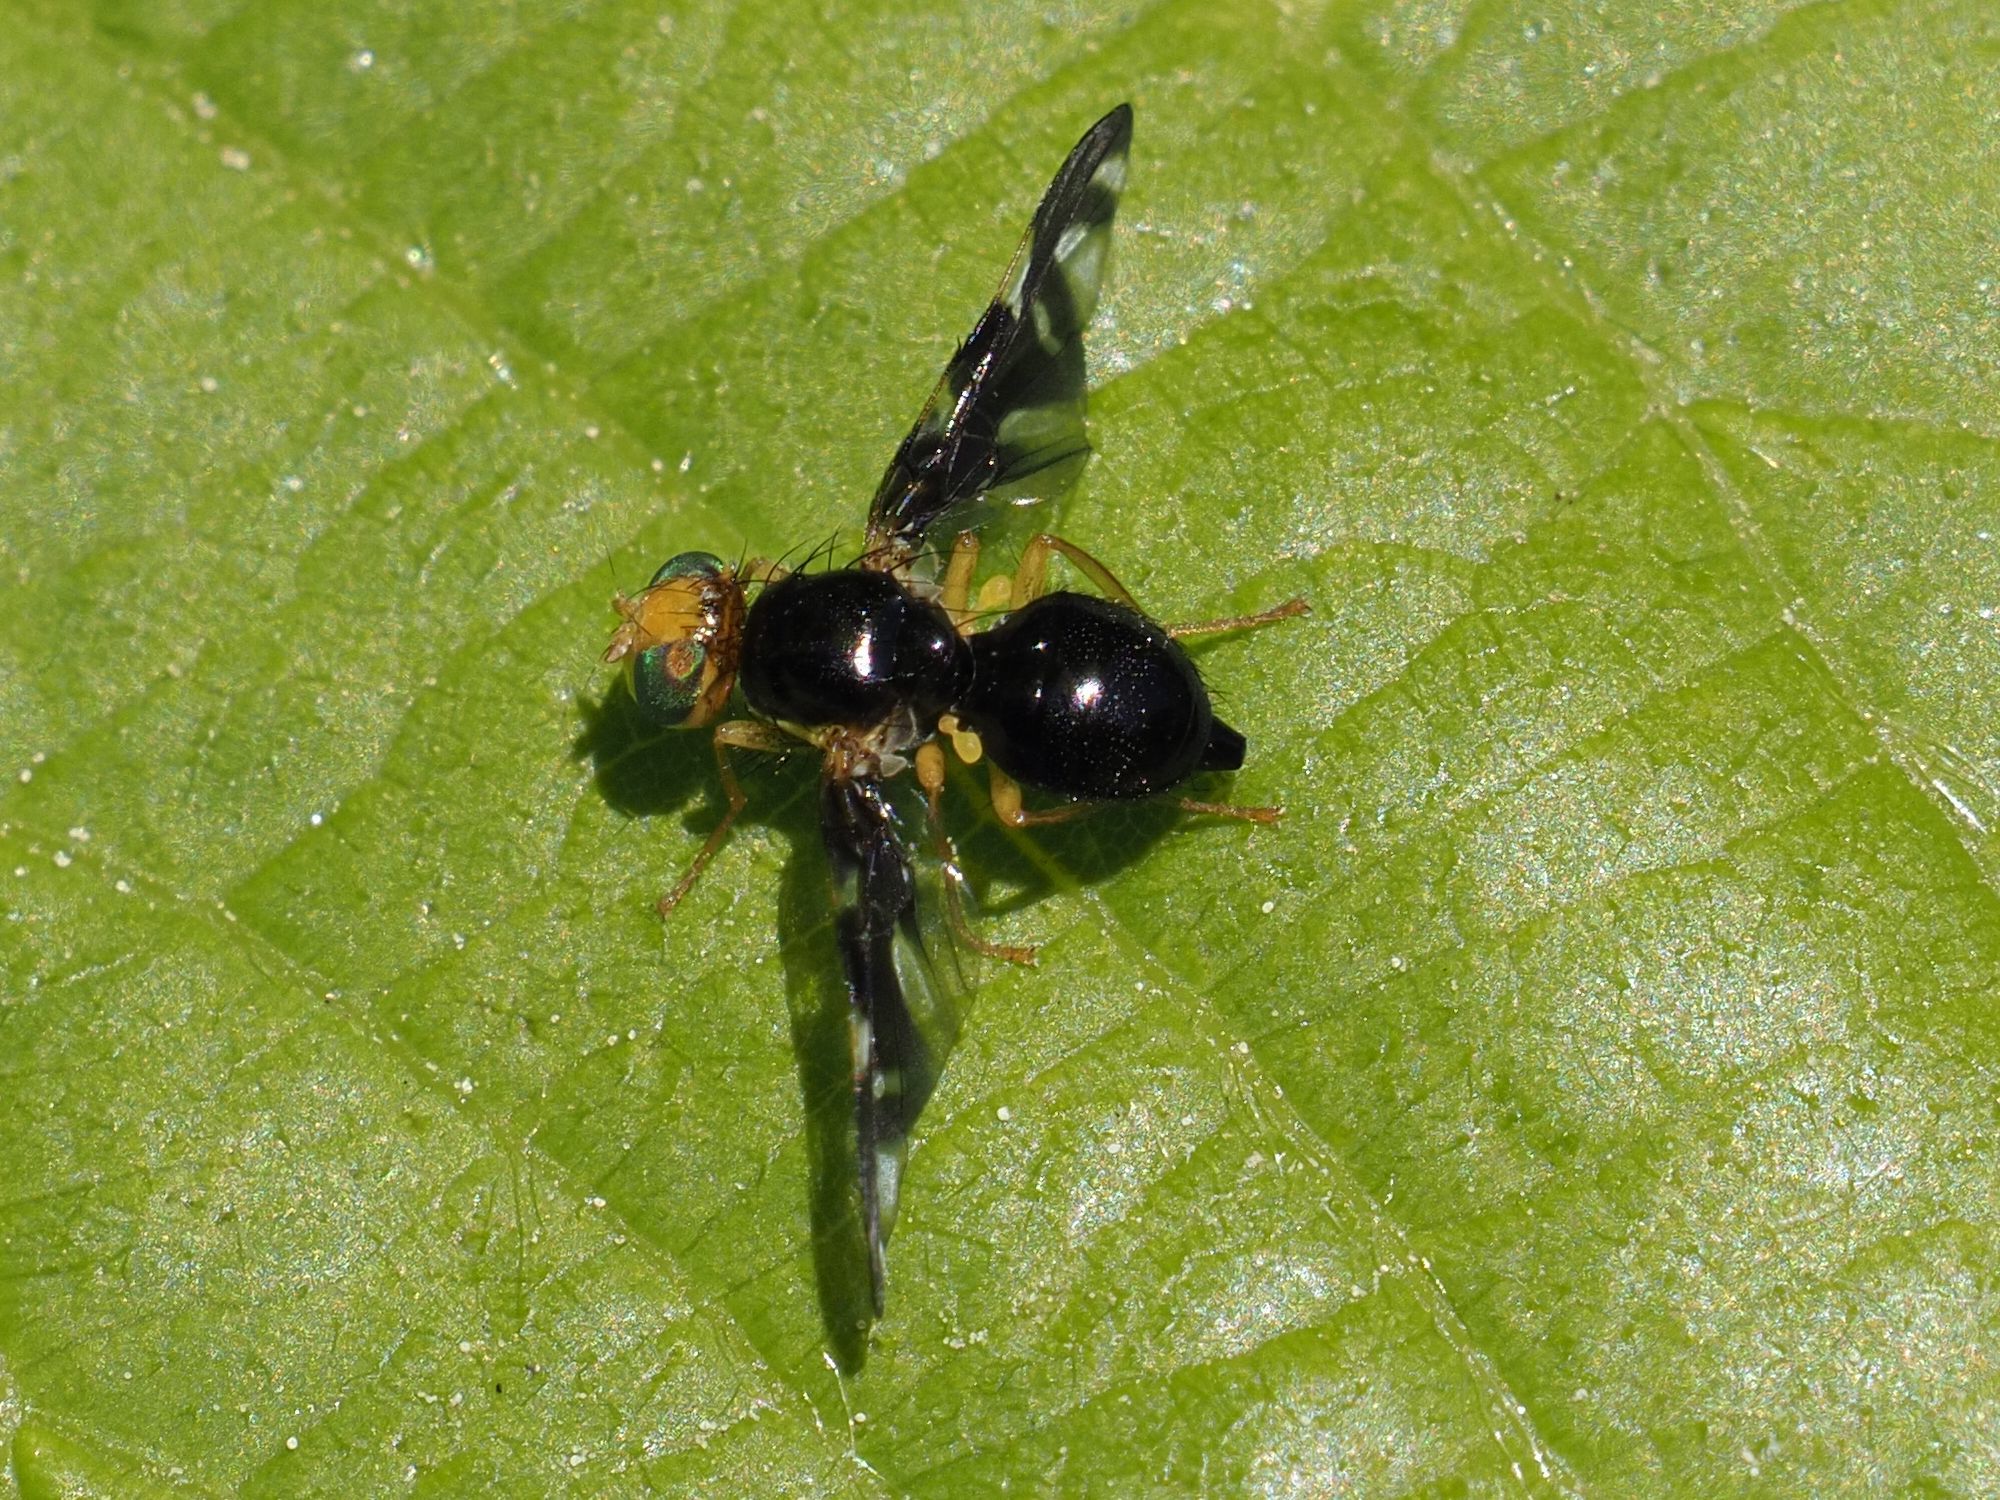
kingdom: Animalia
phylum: Arthropoda
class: Insecta
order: Diptera
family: Tephritidae
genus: Euleia
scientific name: Euleia heraclei
